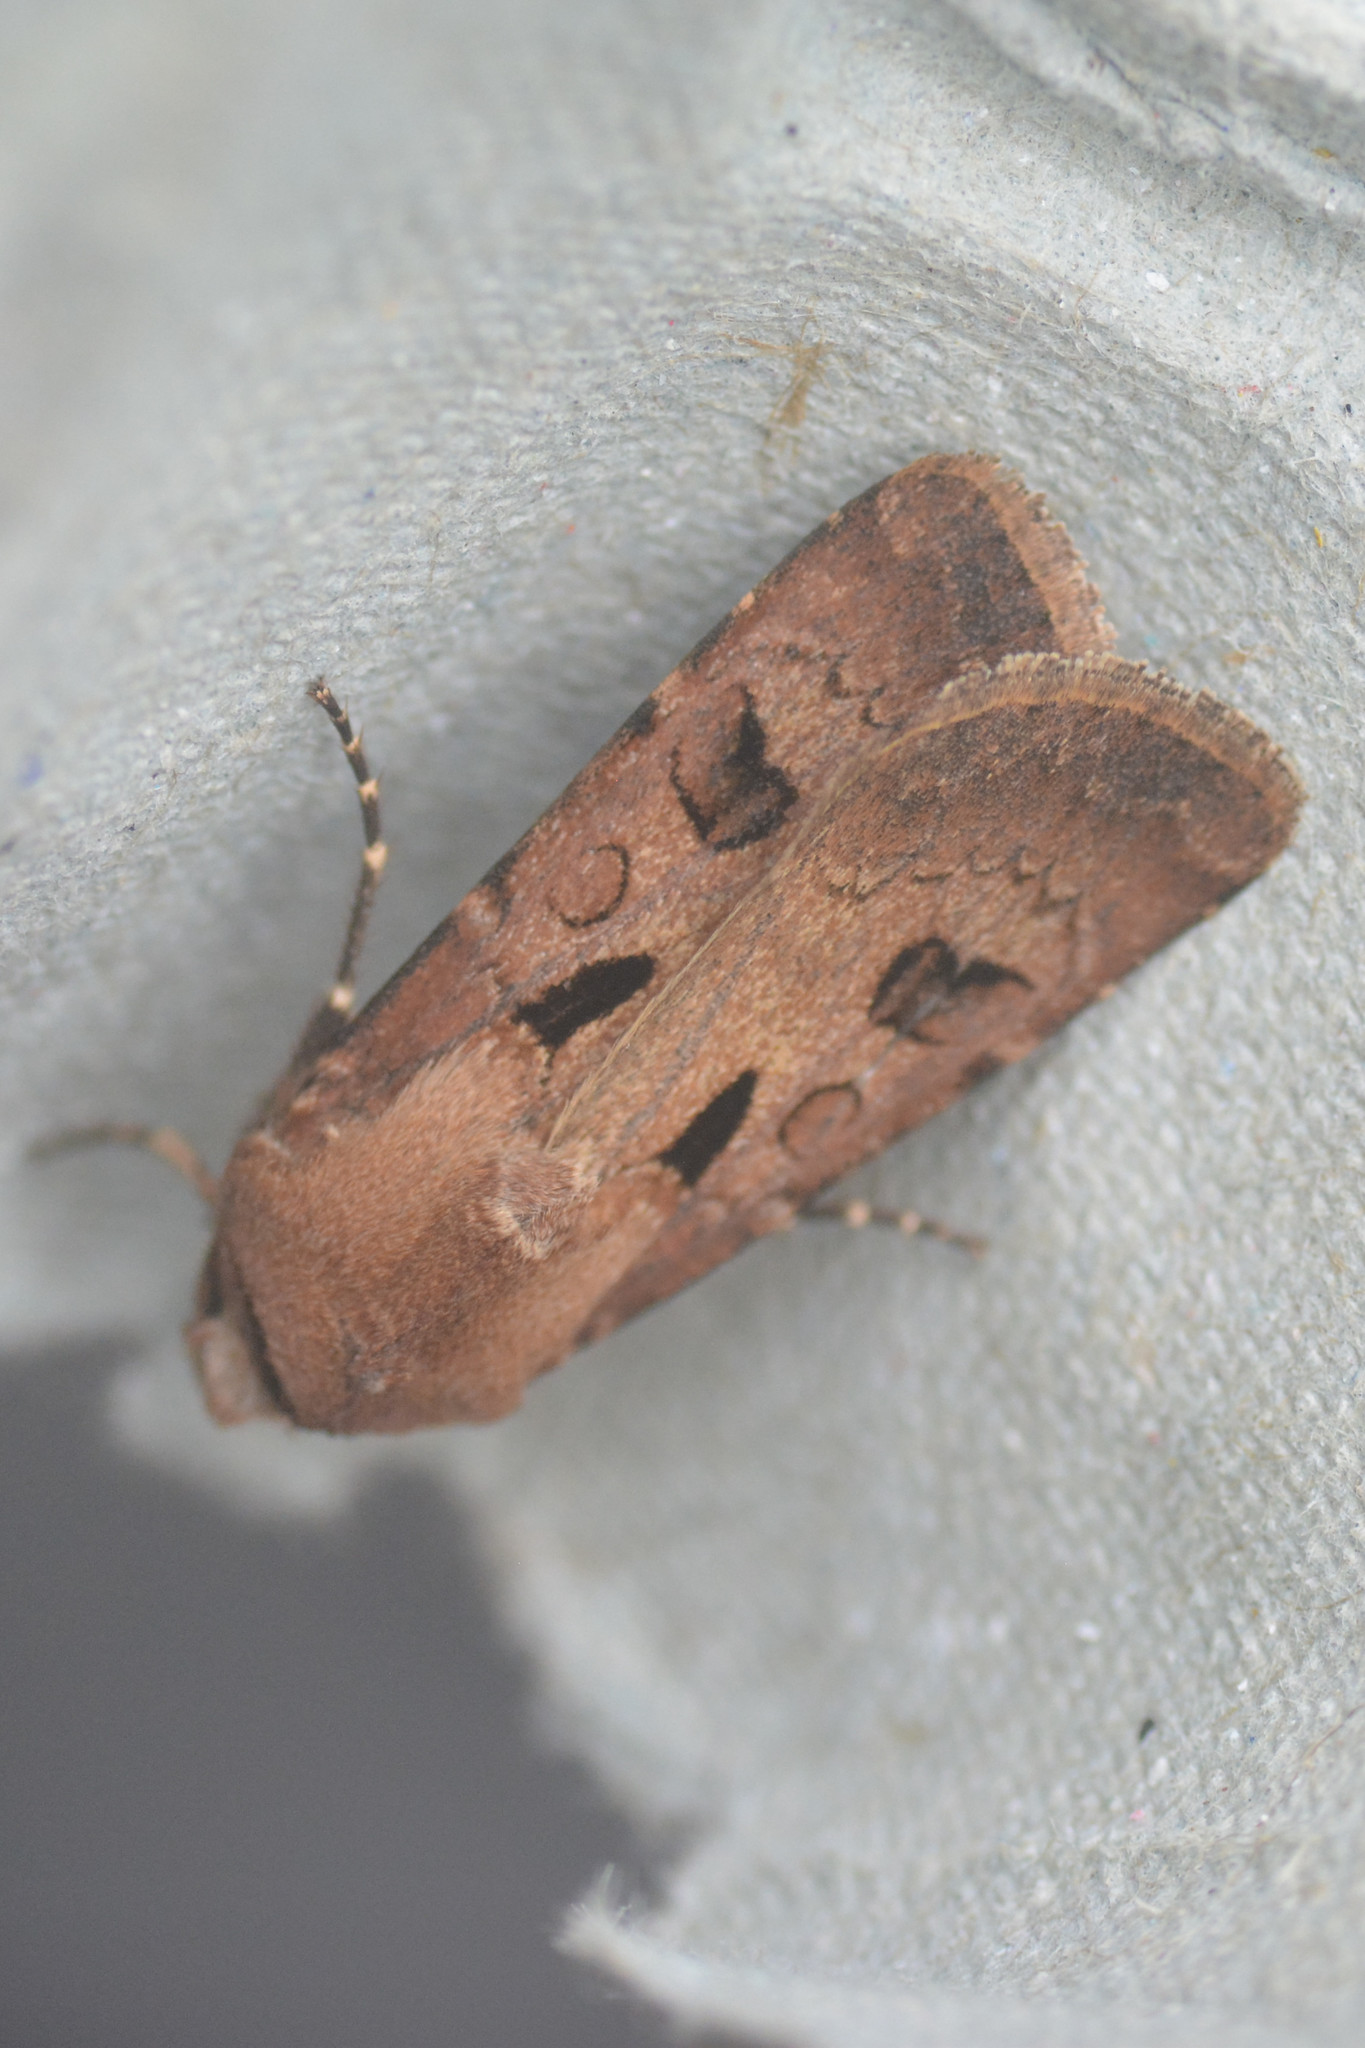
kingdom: Animalia
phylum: Arthropoda
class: Insecta
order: Lepidoptera
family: Noctuidae
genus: Agrotis
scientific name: Agrotis exclamationis
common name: Heart and dart
